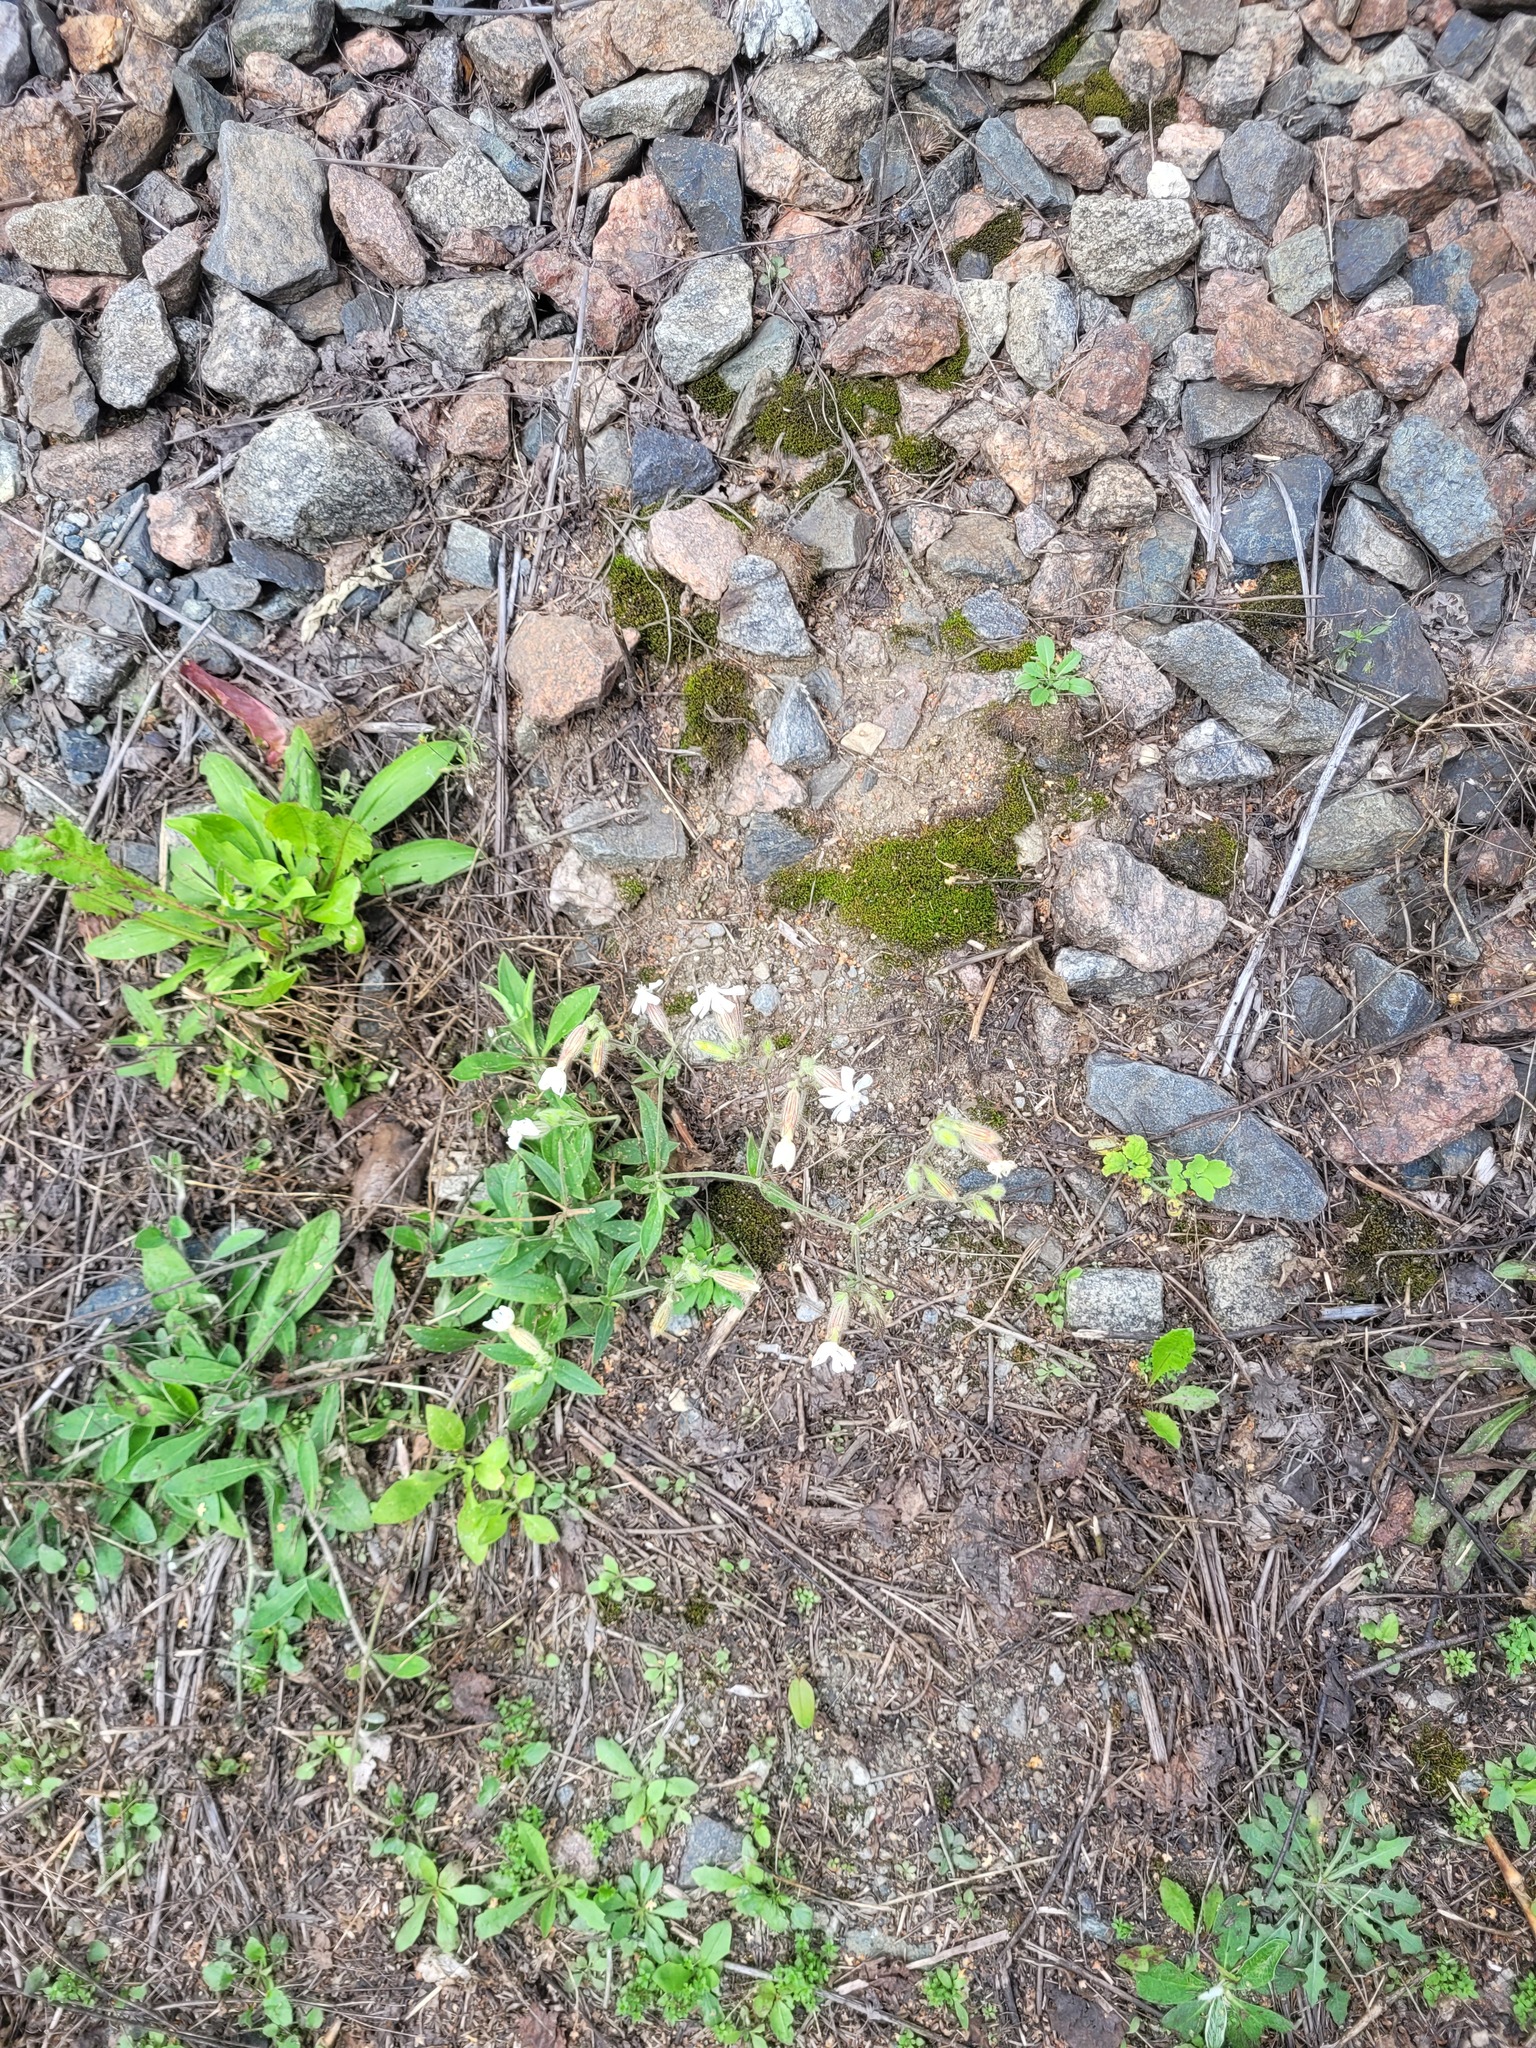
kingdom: Plantae
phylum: Tracheophyta
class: Magnoliopsida
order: Caryophyllales
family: Caryophyllaceae
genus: Silene
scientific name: Silene latifolia
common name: White campion
